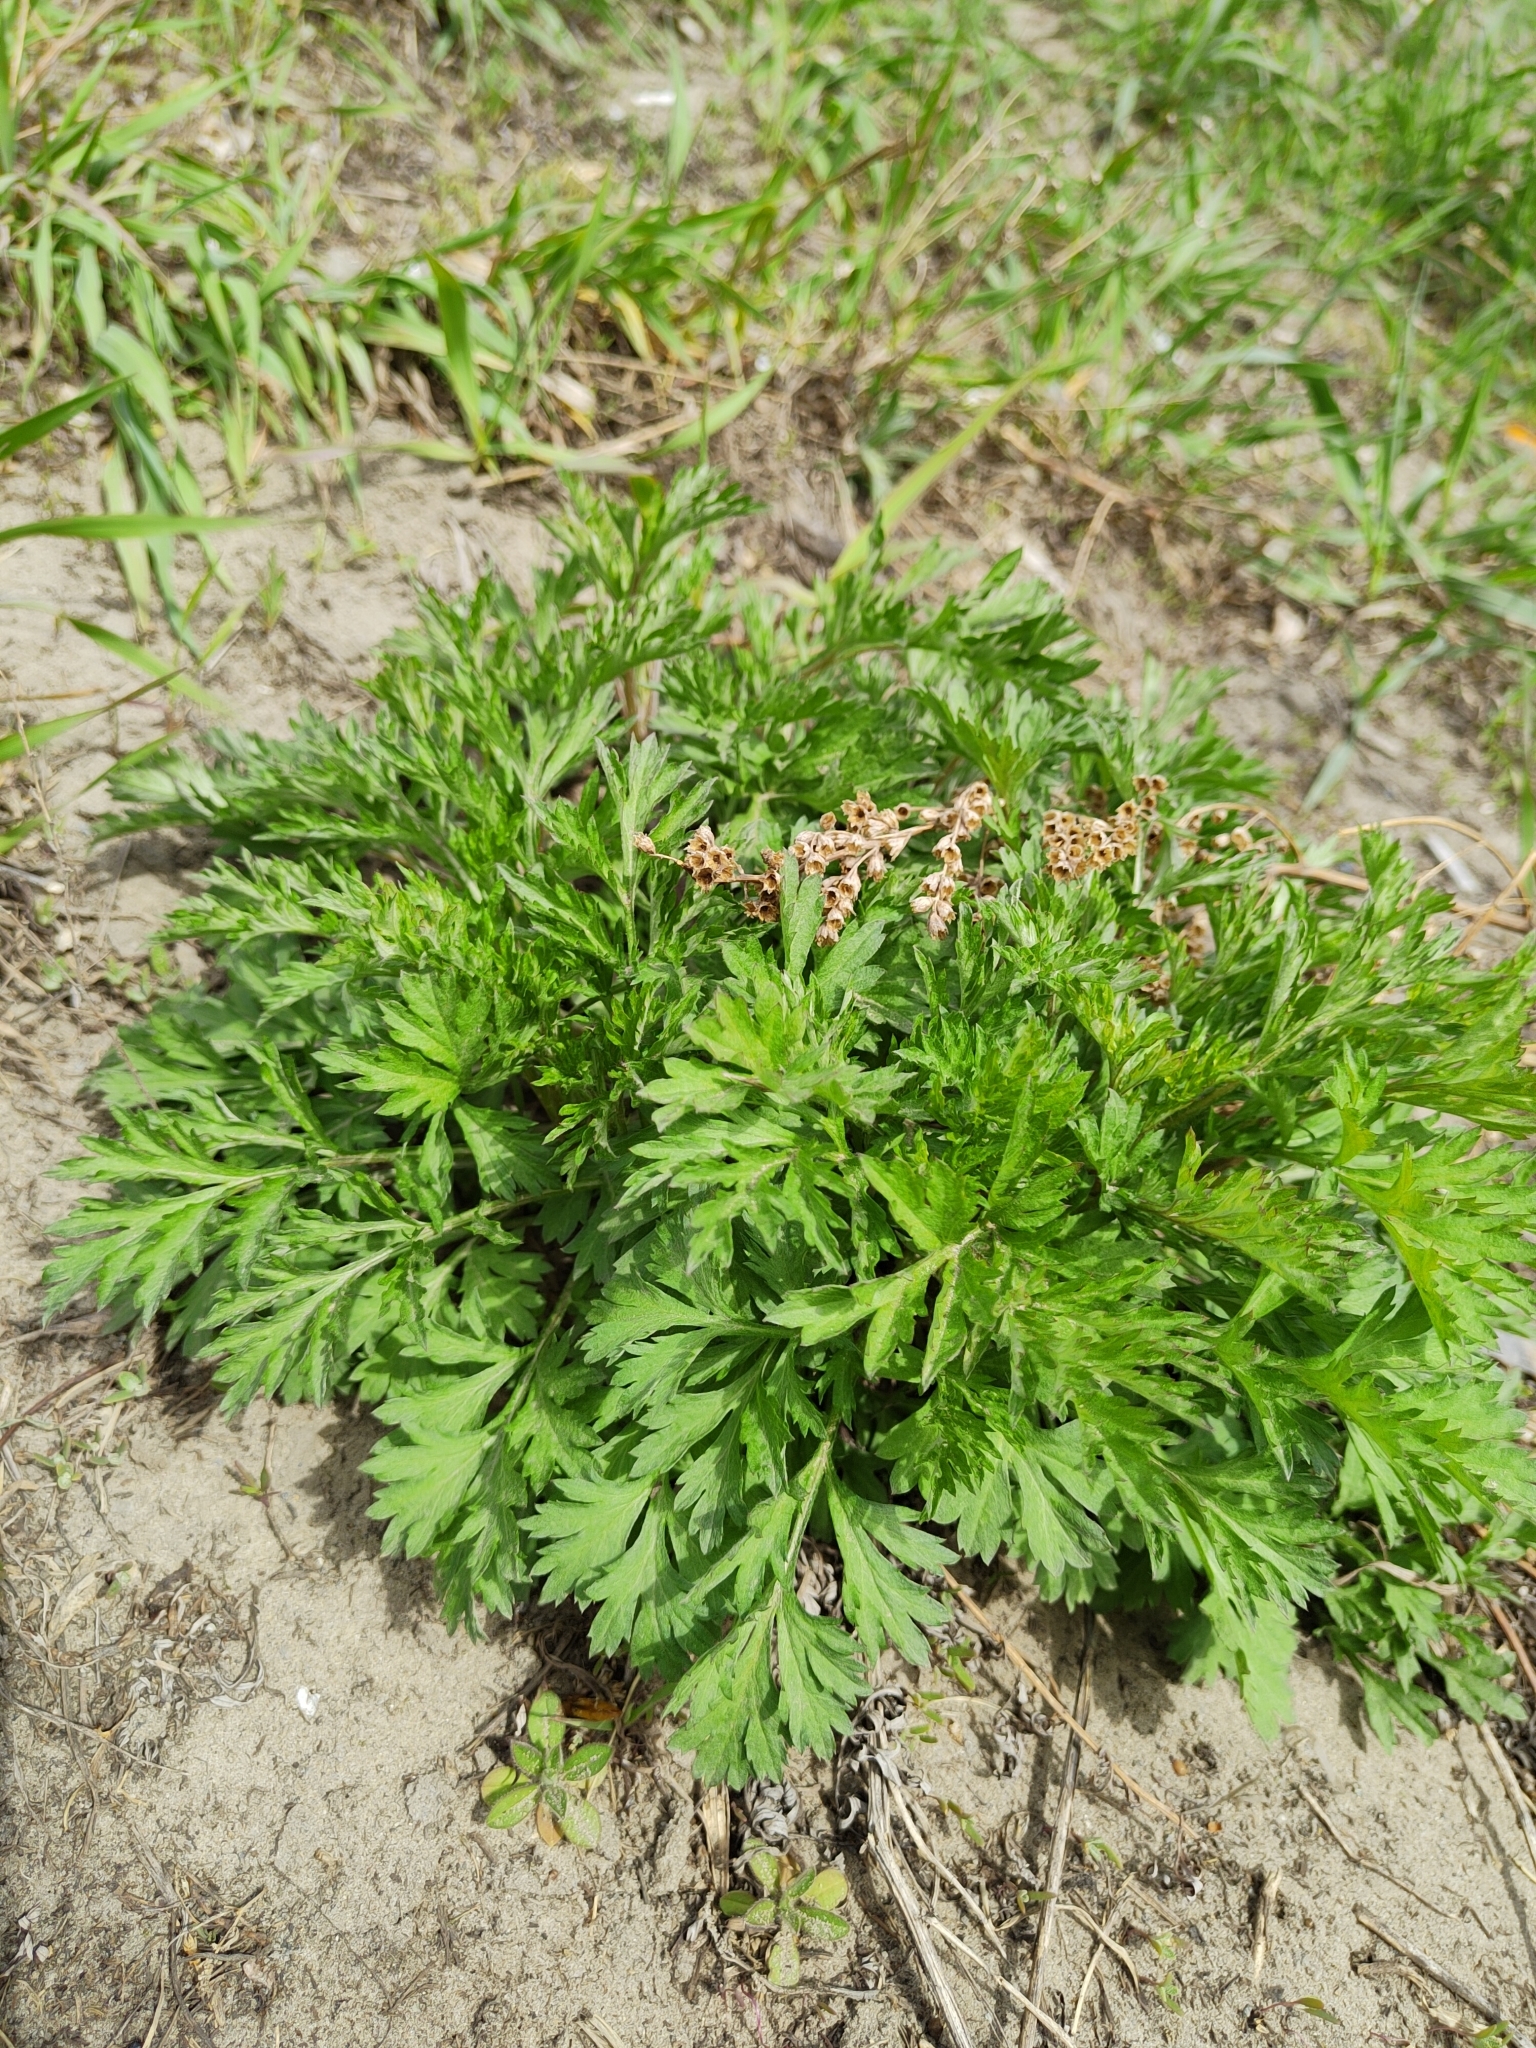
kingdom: Plantae
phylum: Tracheophyta
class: Magnoliopsida
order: Asterales
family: Asteraceae
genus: Artemisia
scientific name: Artemisia vulgaris
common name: Mugwort
